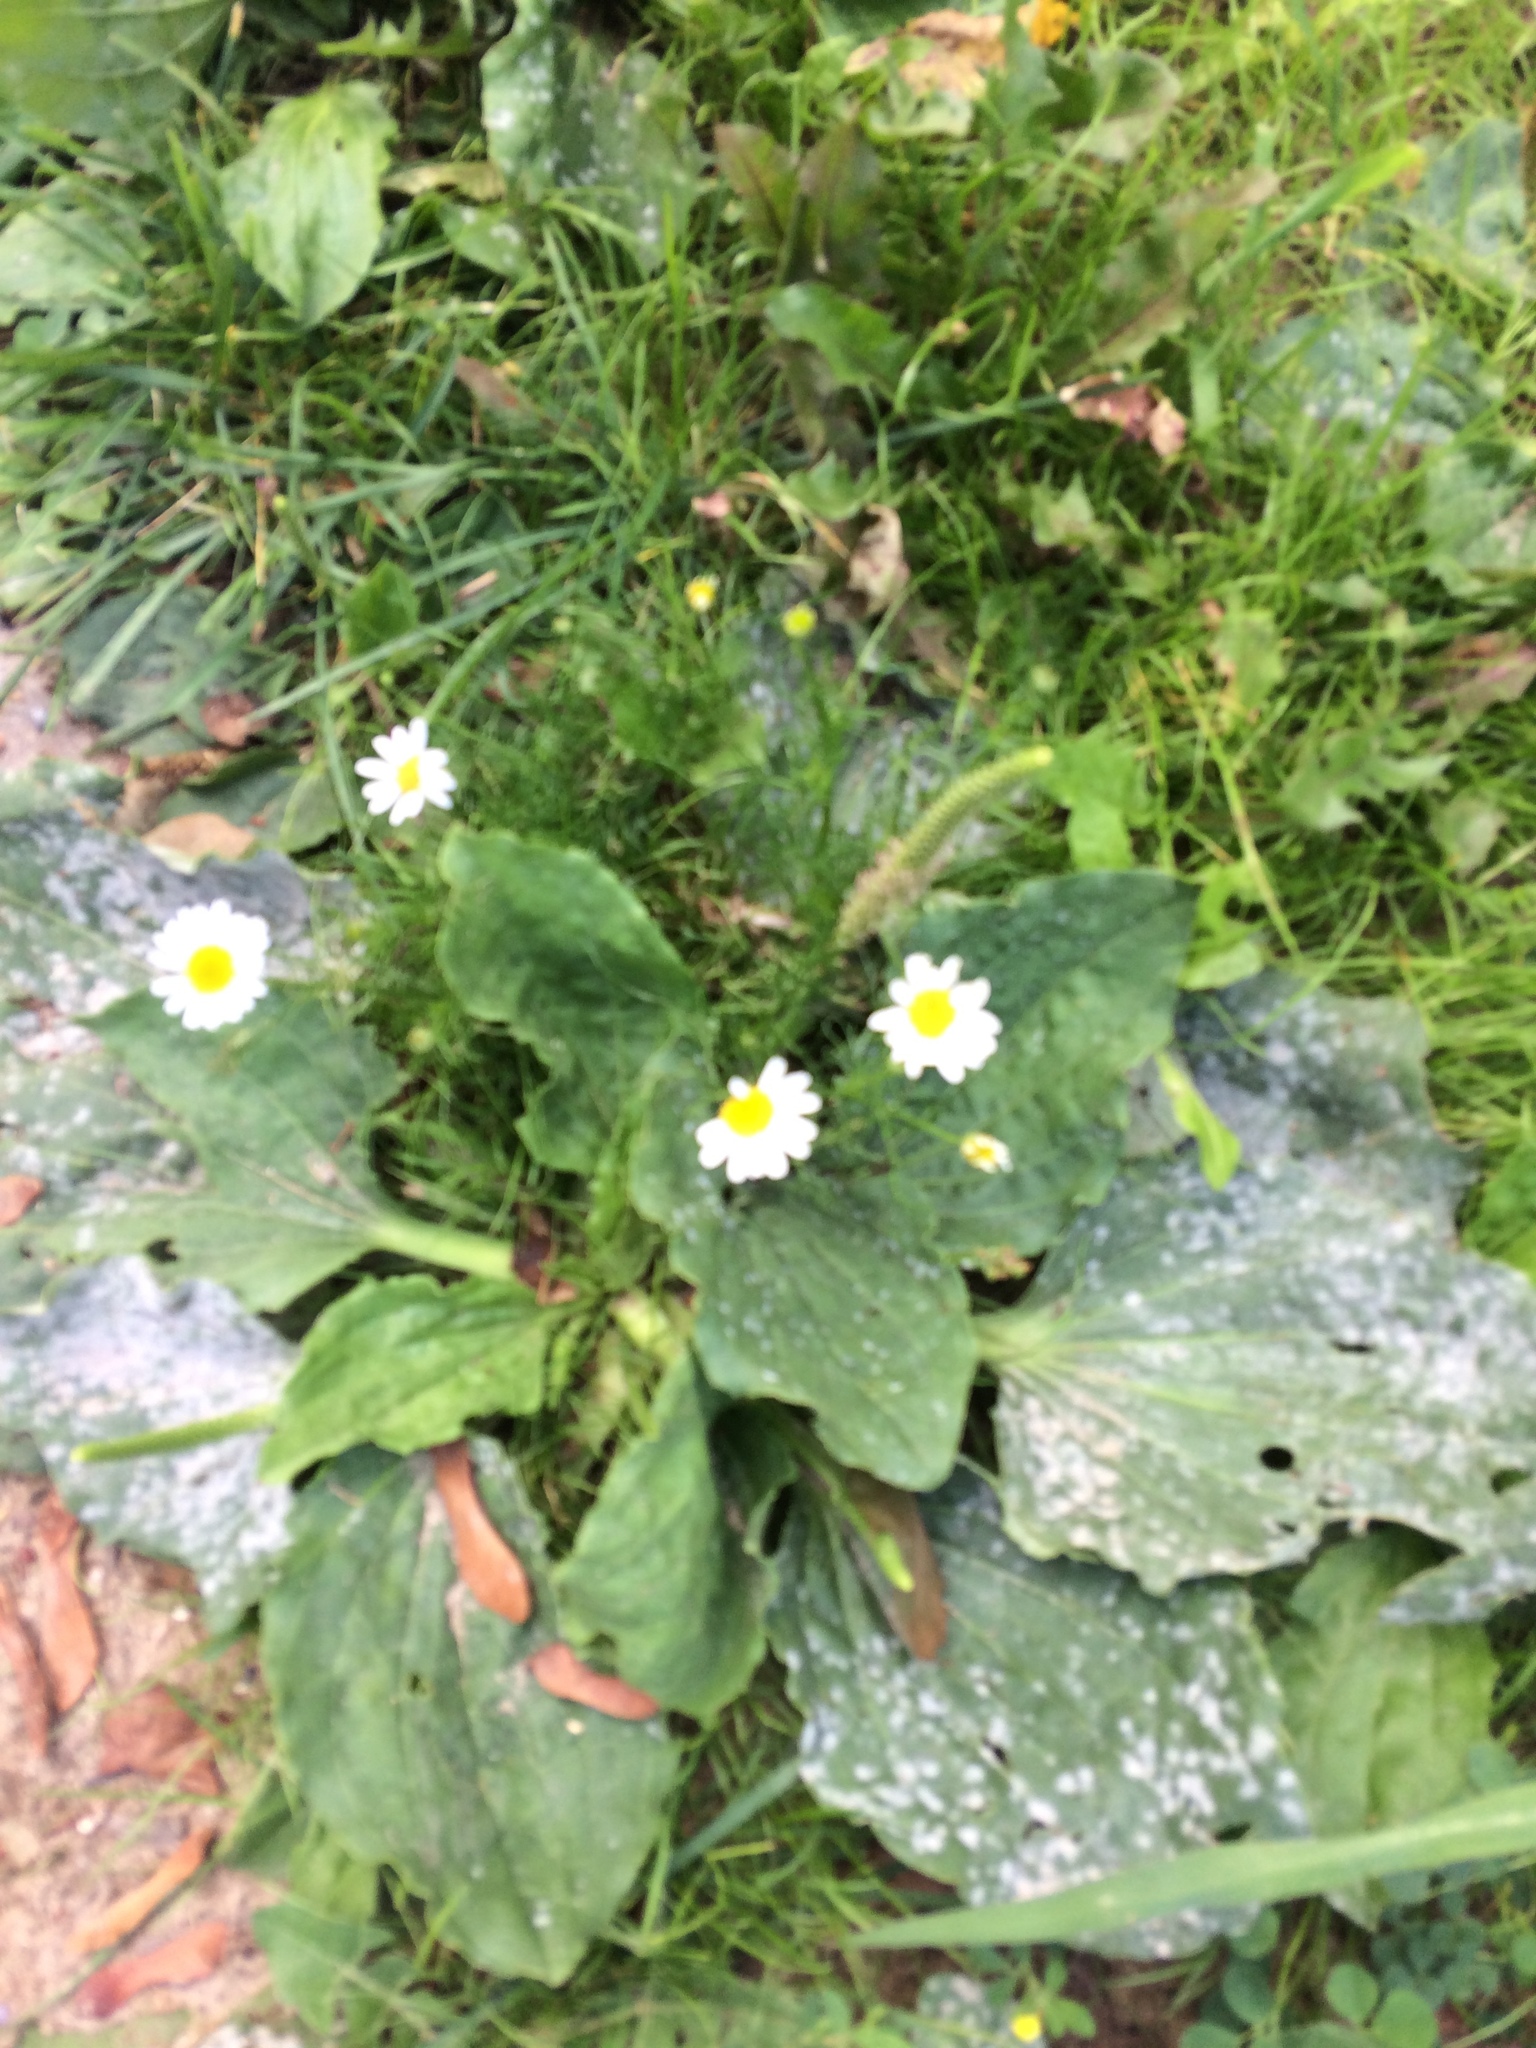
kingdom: Plantae
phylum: Tracheophyta
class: Magnoliopsida
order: Lamiales
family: Plantaginaceae
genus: Plantago
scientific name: Plantago major
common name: Common plantain
